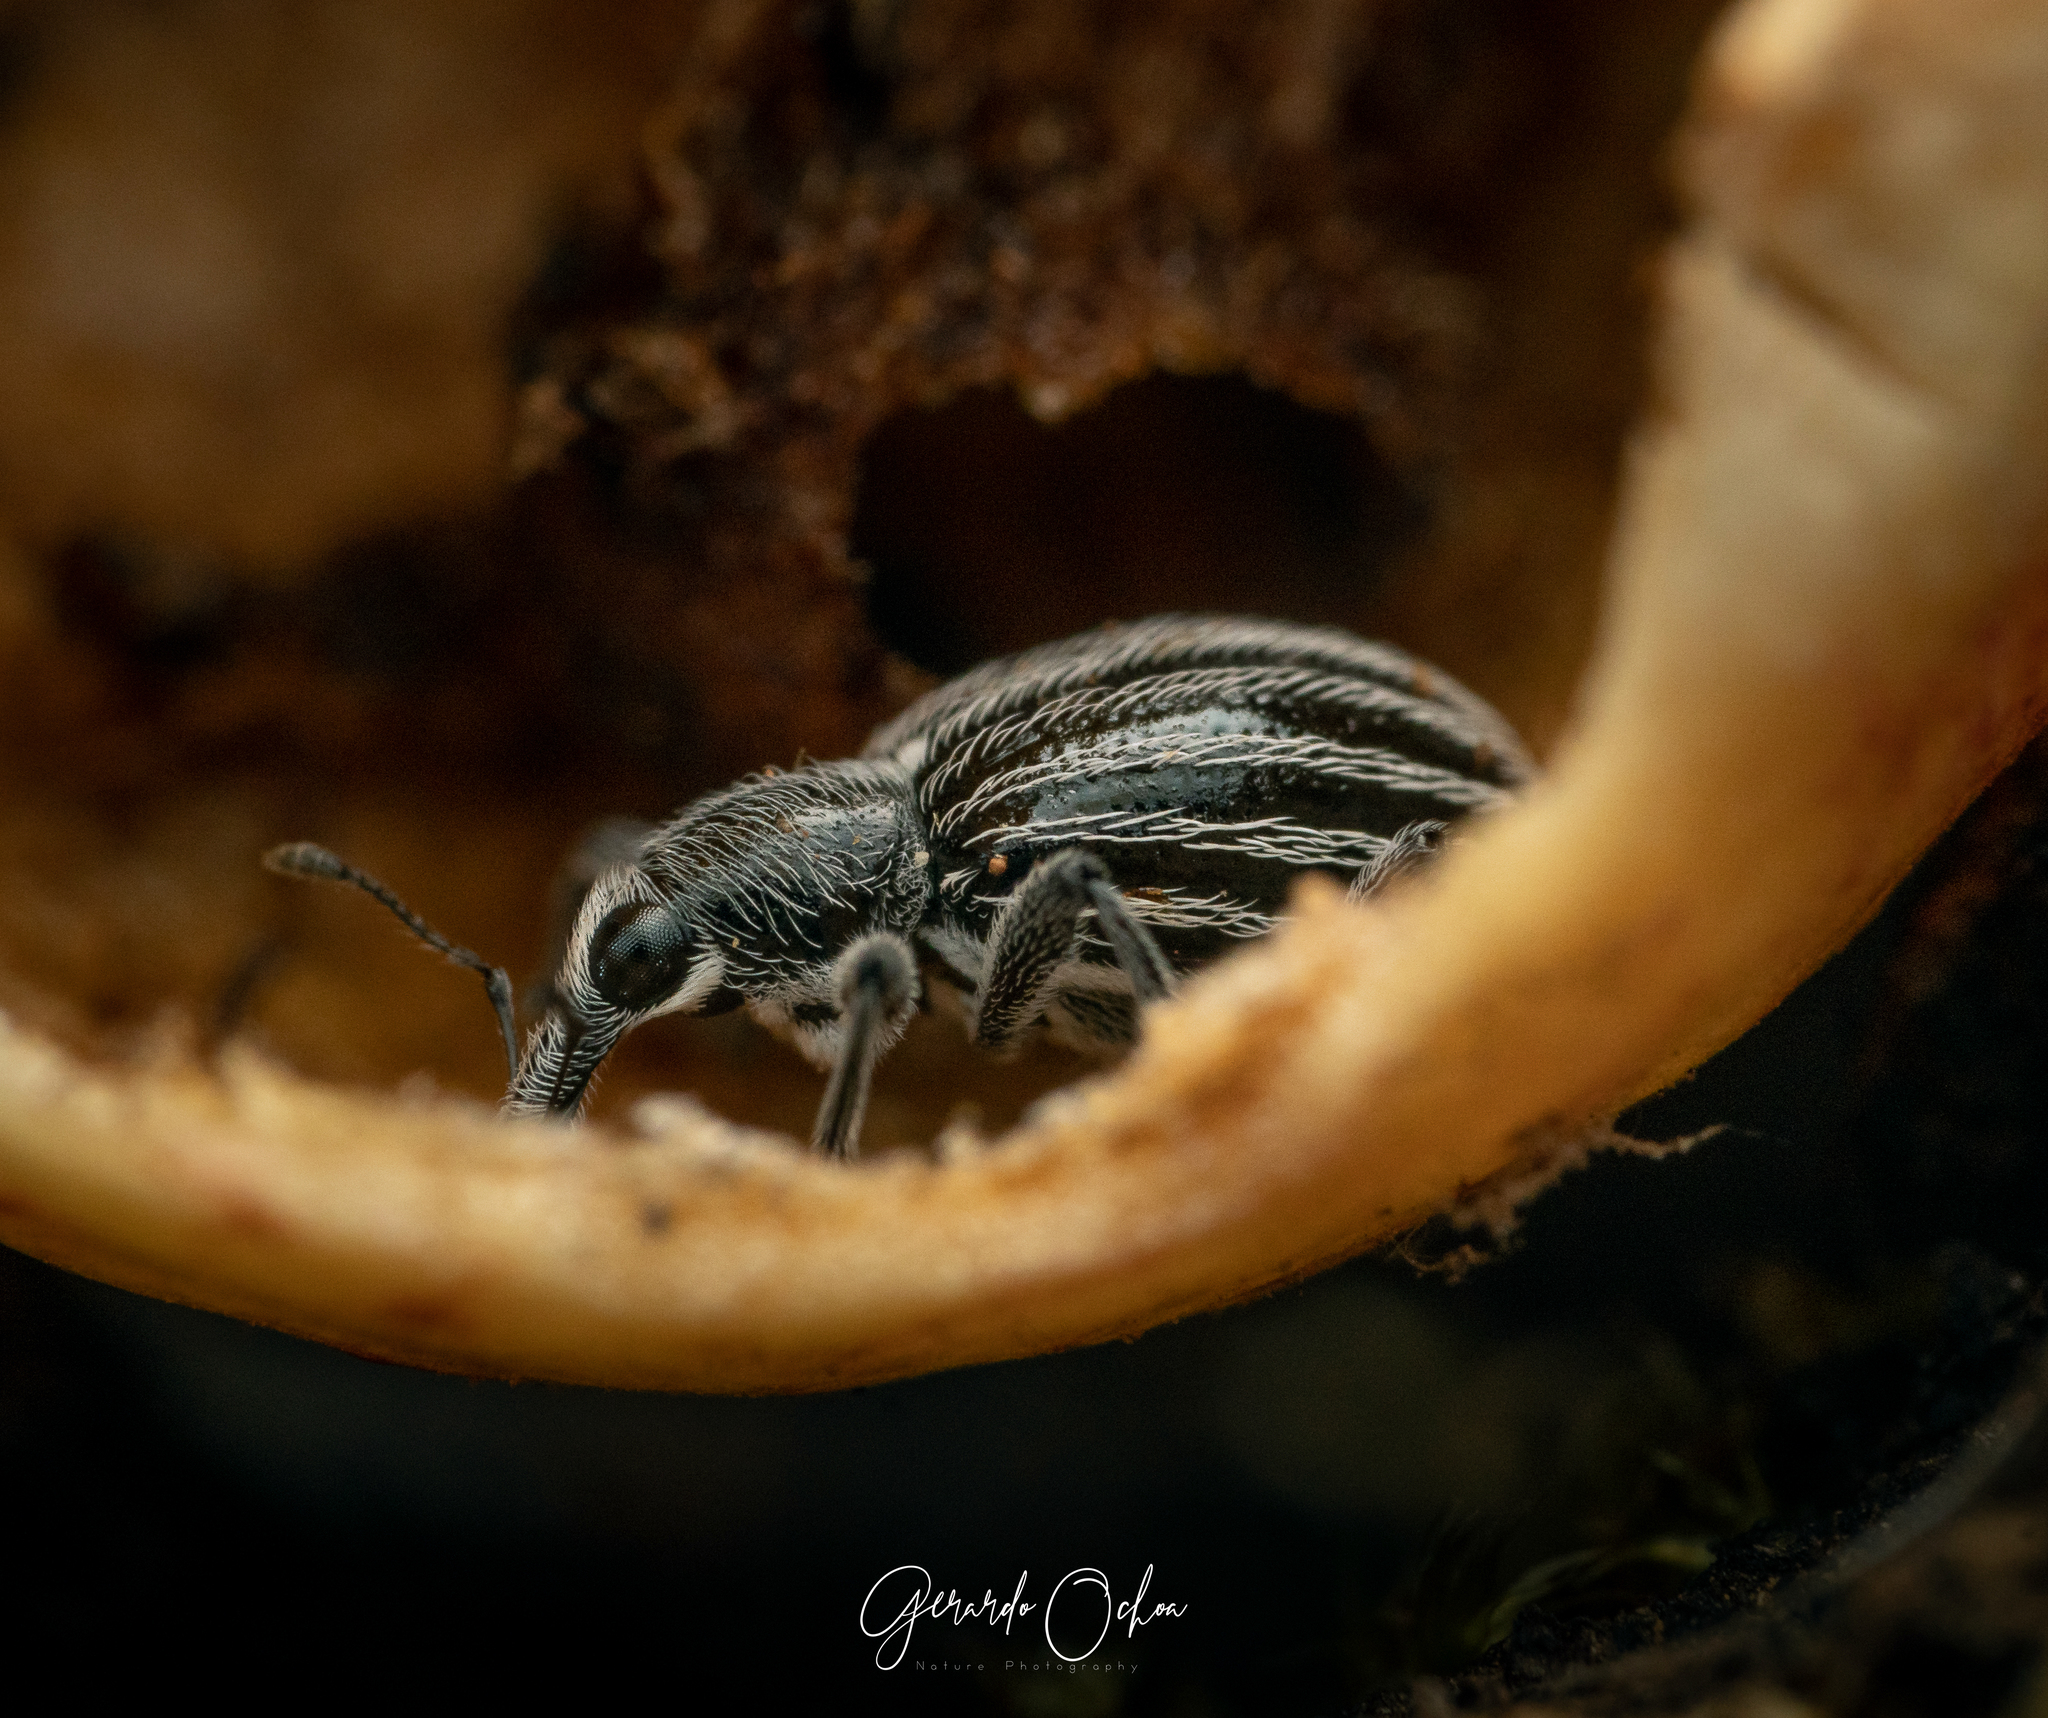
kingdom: Animalia
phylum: Arthropoda
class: Insecta
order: Coleoptera
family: Curculionidae
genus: Myrmex
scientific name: Myrmex vandykei
